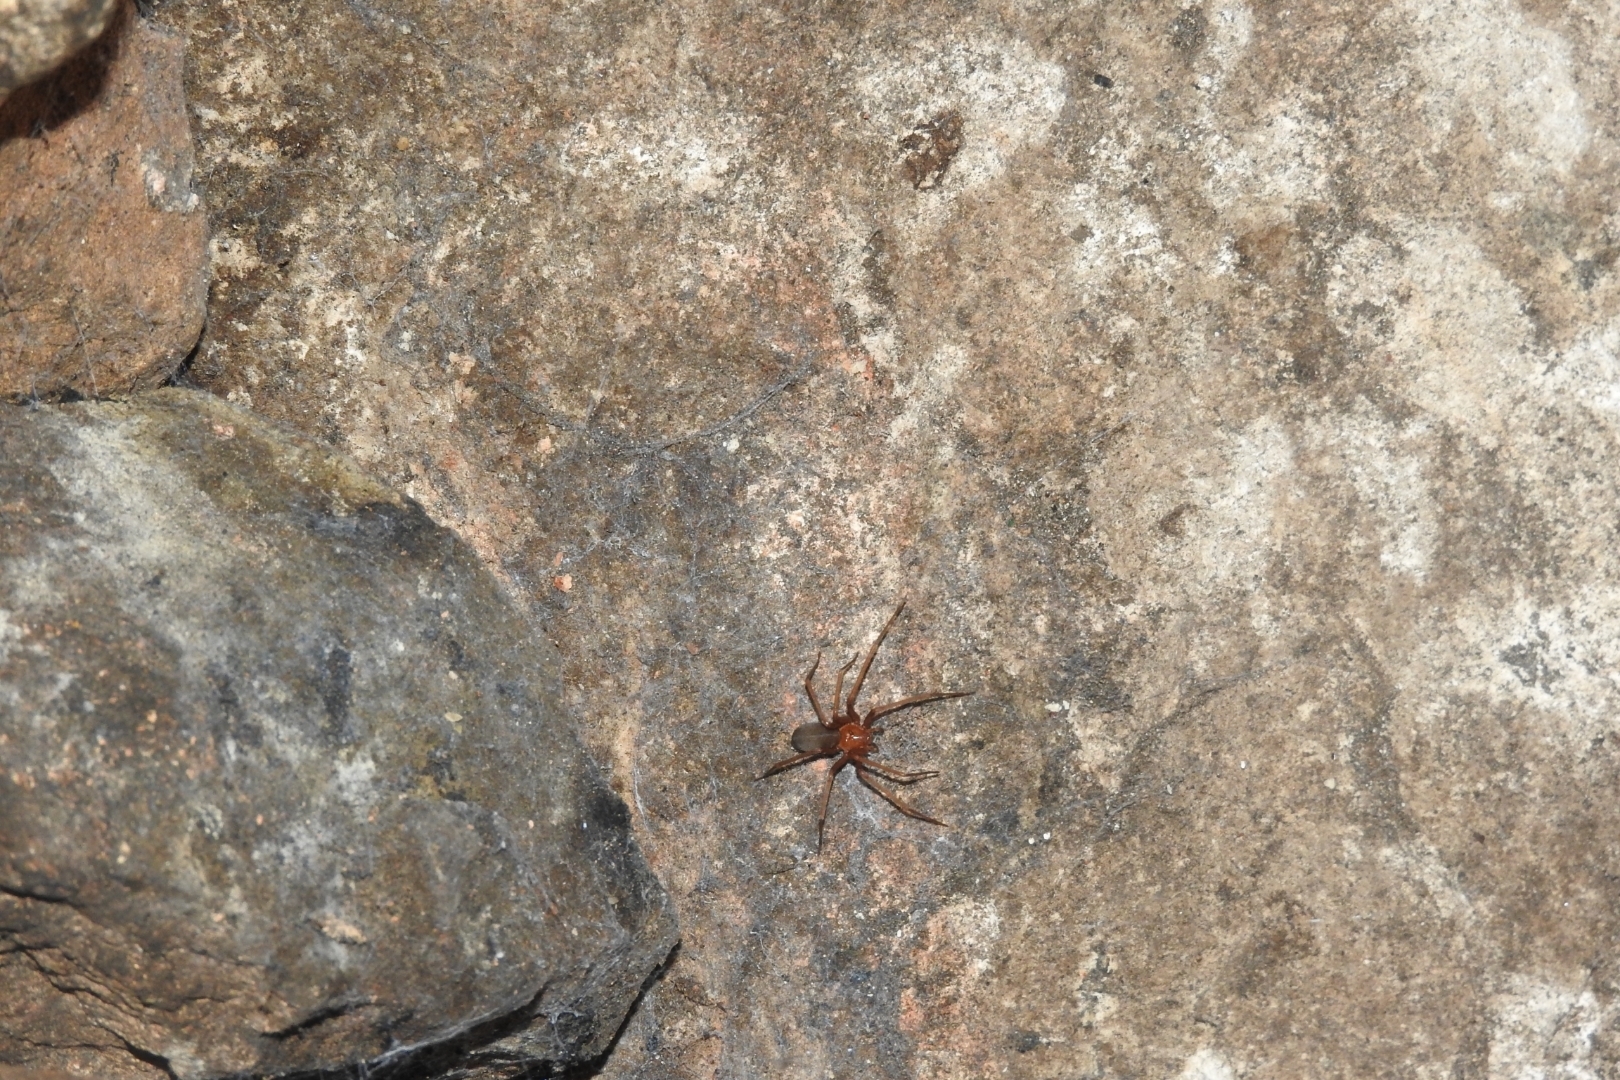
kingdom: Animalia
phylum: Arthropoda
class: Arachnida
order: Araneae
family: Sicariidae
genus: Loxosceles
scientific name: Loxosceles yucatana
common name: Violin spiders
